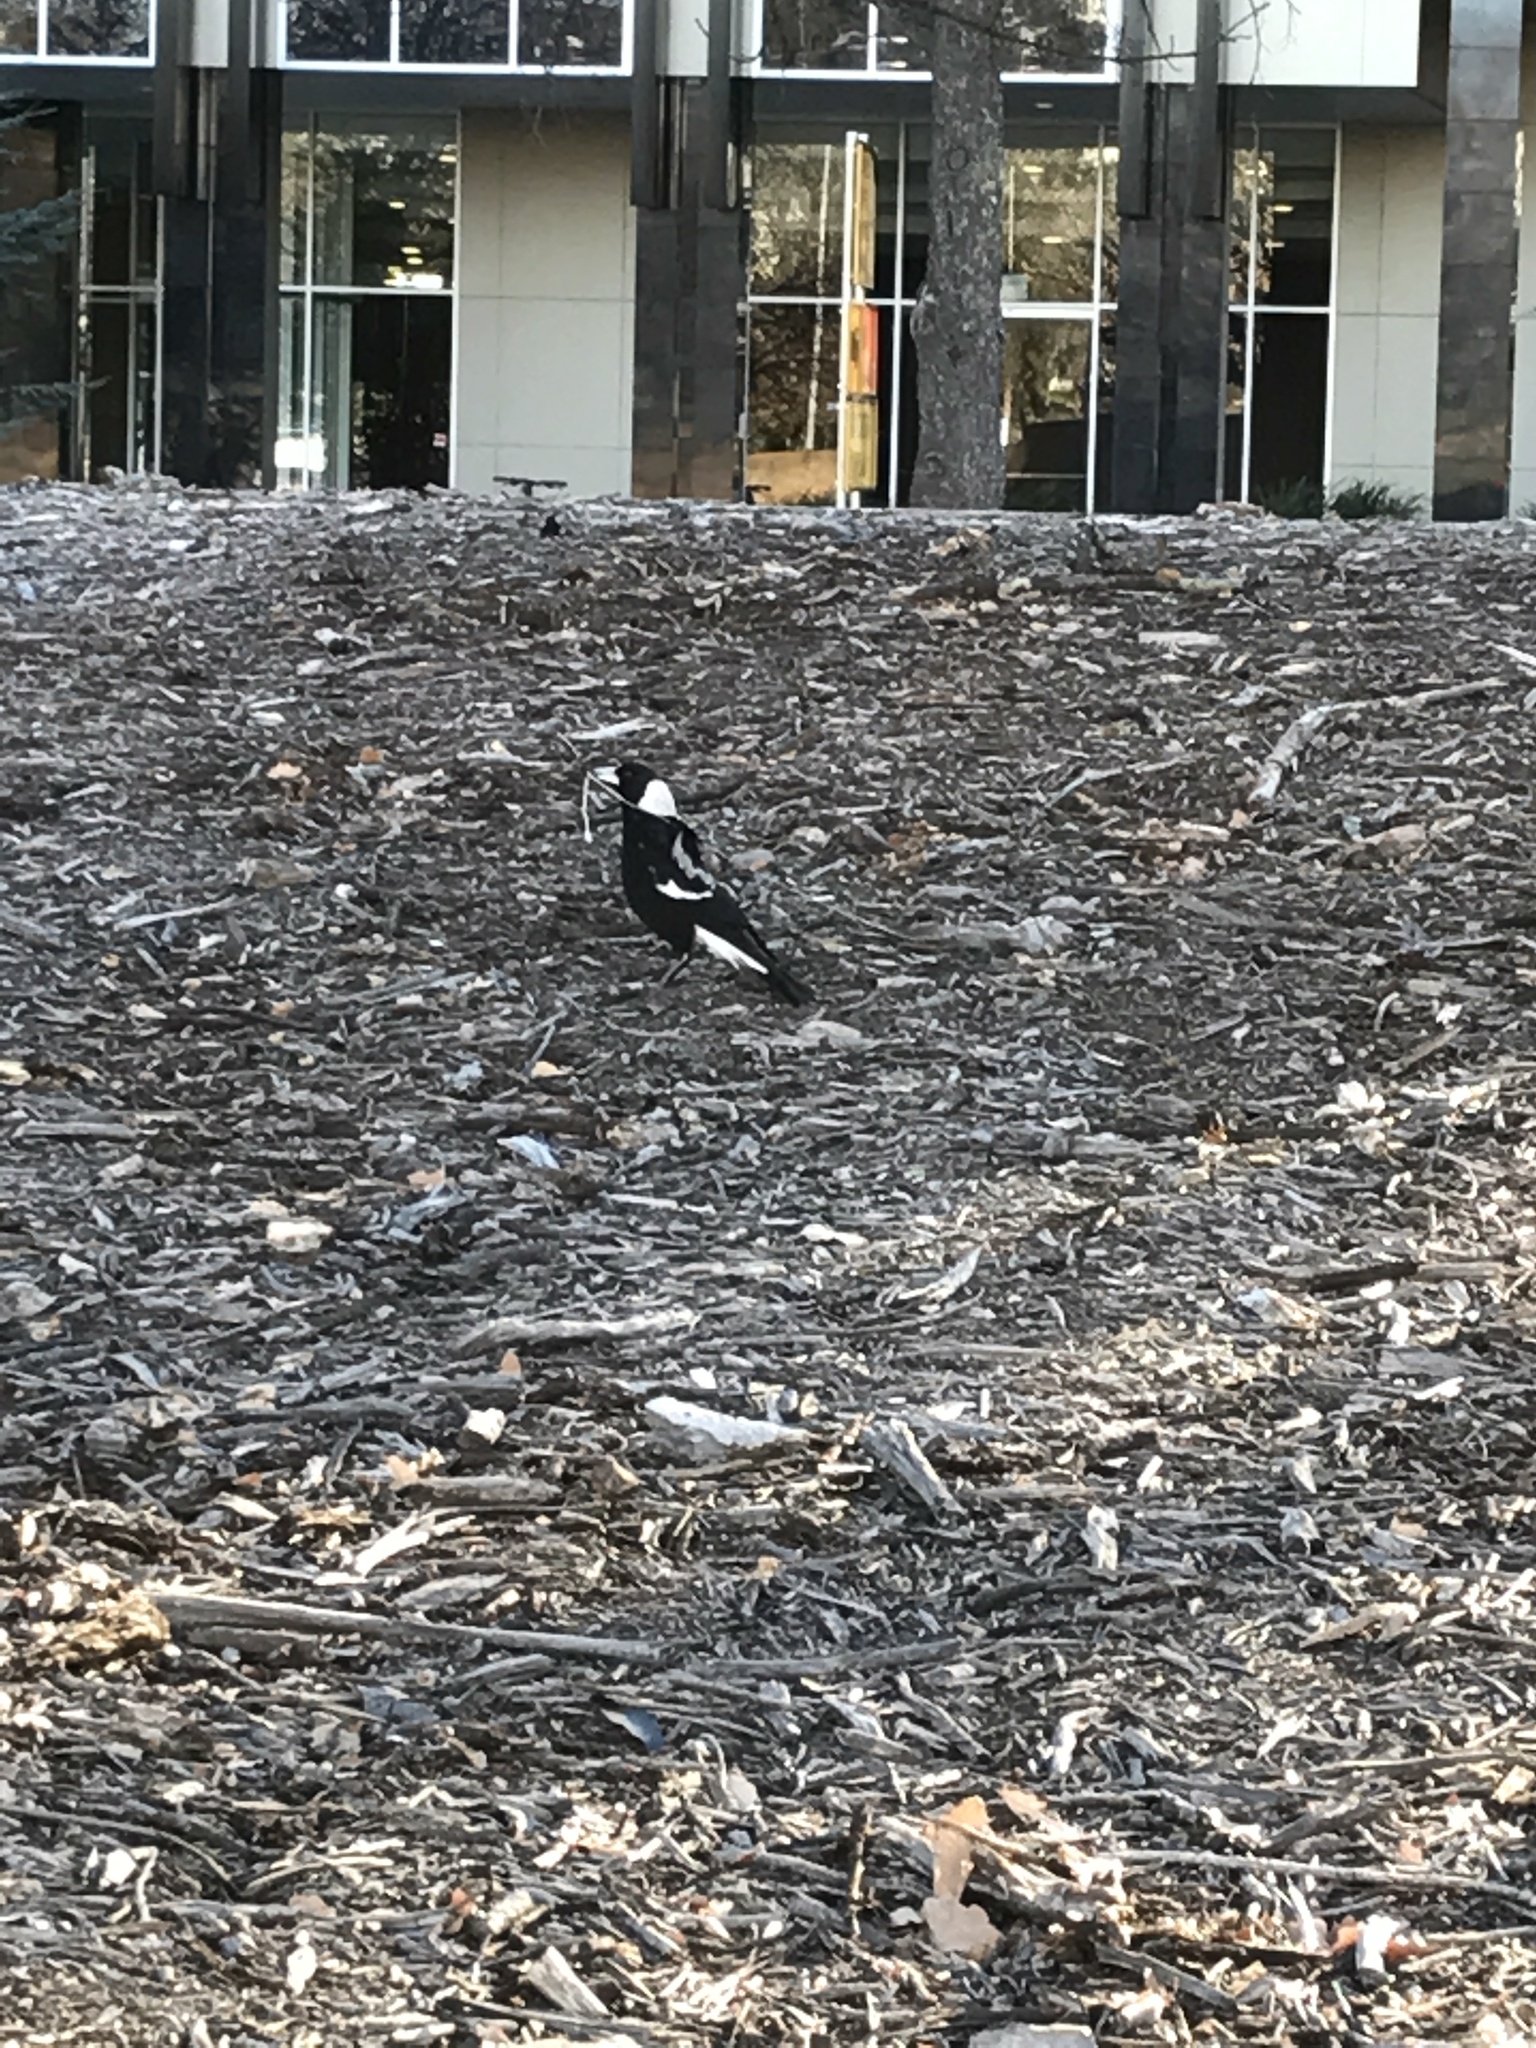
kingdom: Animalia
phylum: Chordata
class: Aves
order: Passeriformes
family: Cracticidae
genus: Gymnorhina
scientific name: Gymnorhina tibicen
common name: Australian magpie
